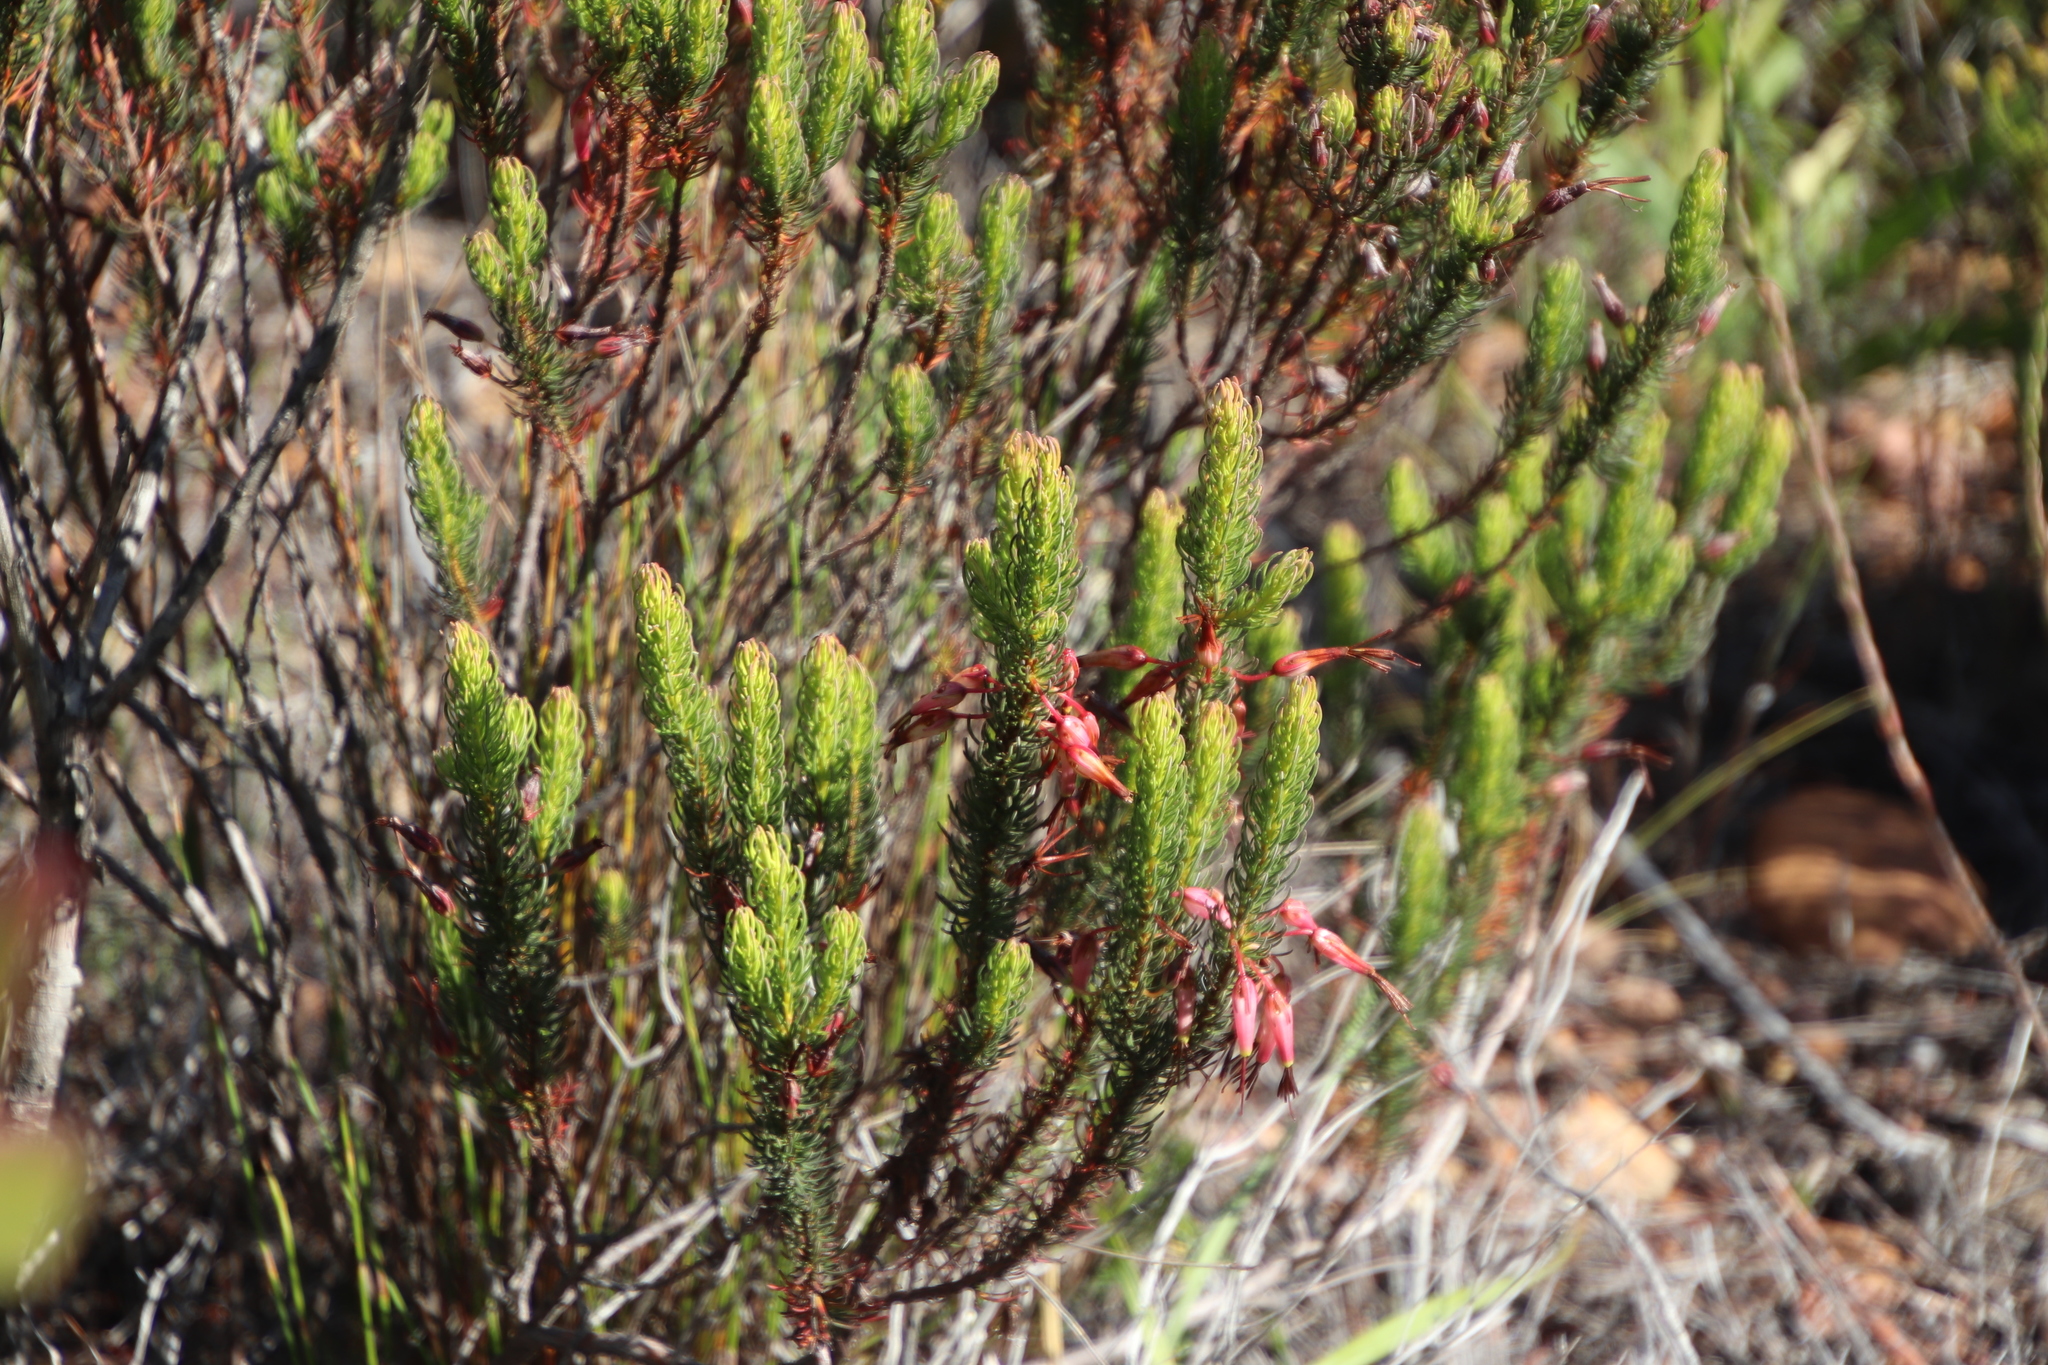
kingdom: Plantae
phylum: Tracheophyta
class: Magnoliopsida
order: Ericales
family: Ericaceae
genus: Erica
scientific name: Erica plukenetii
